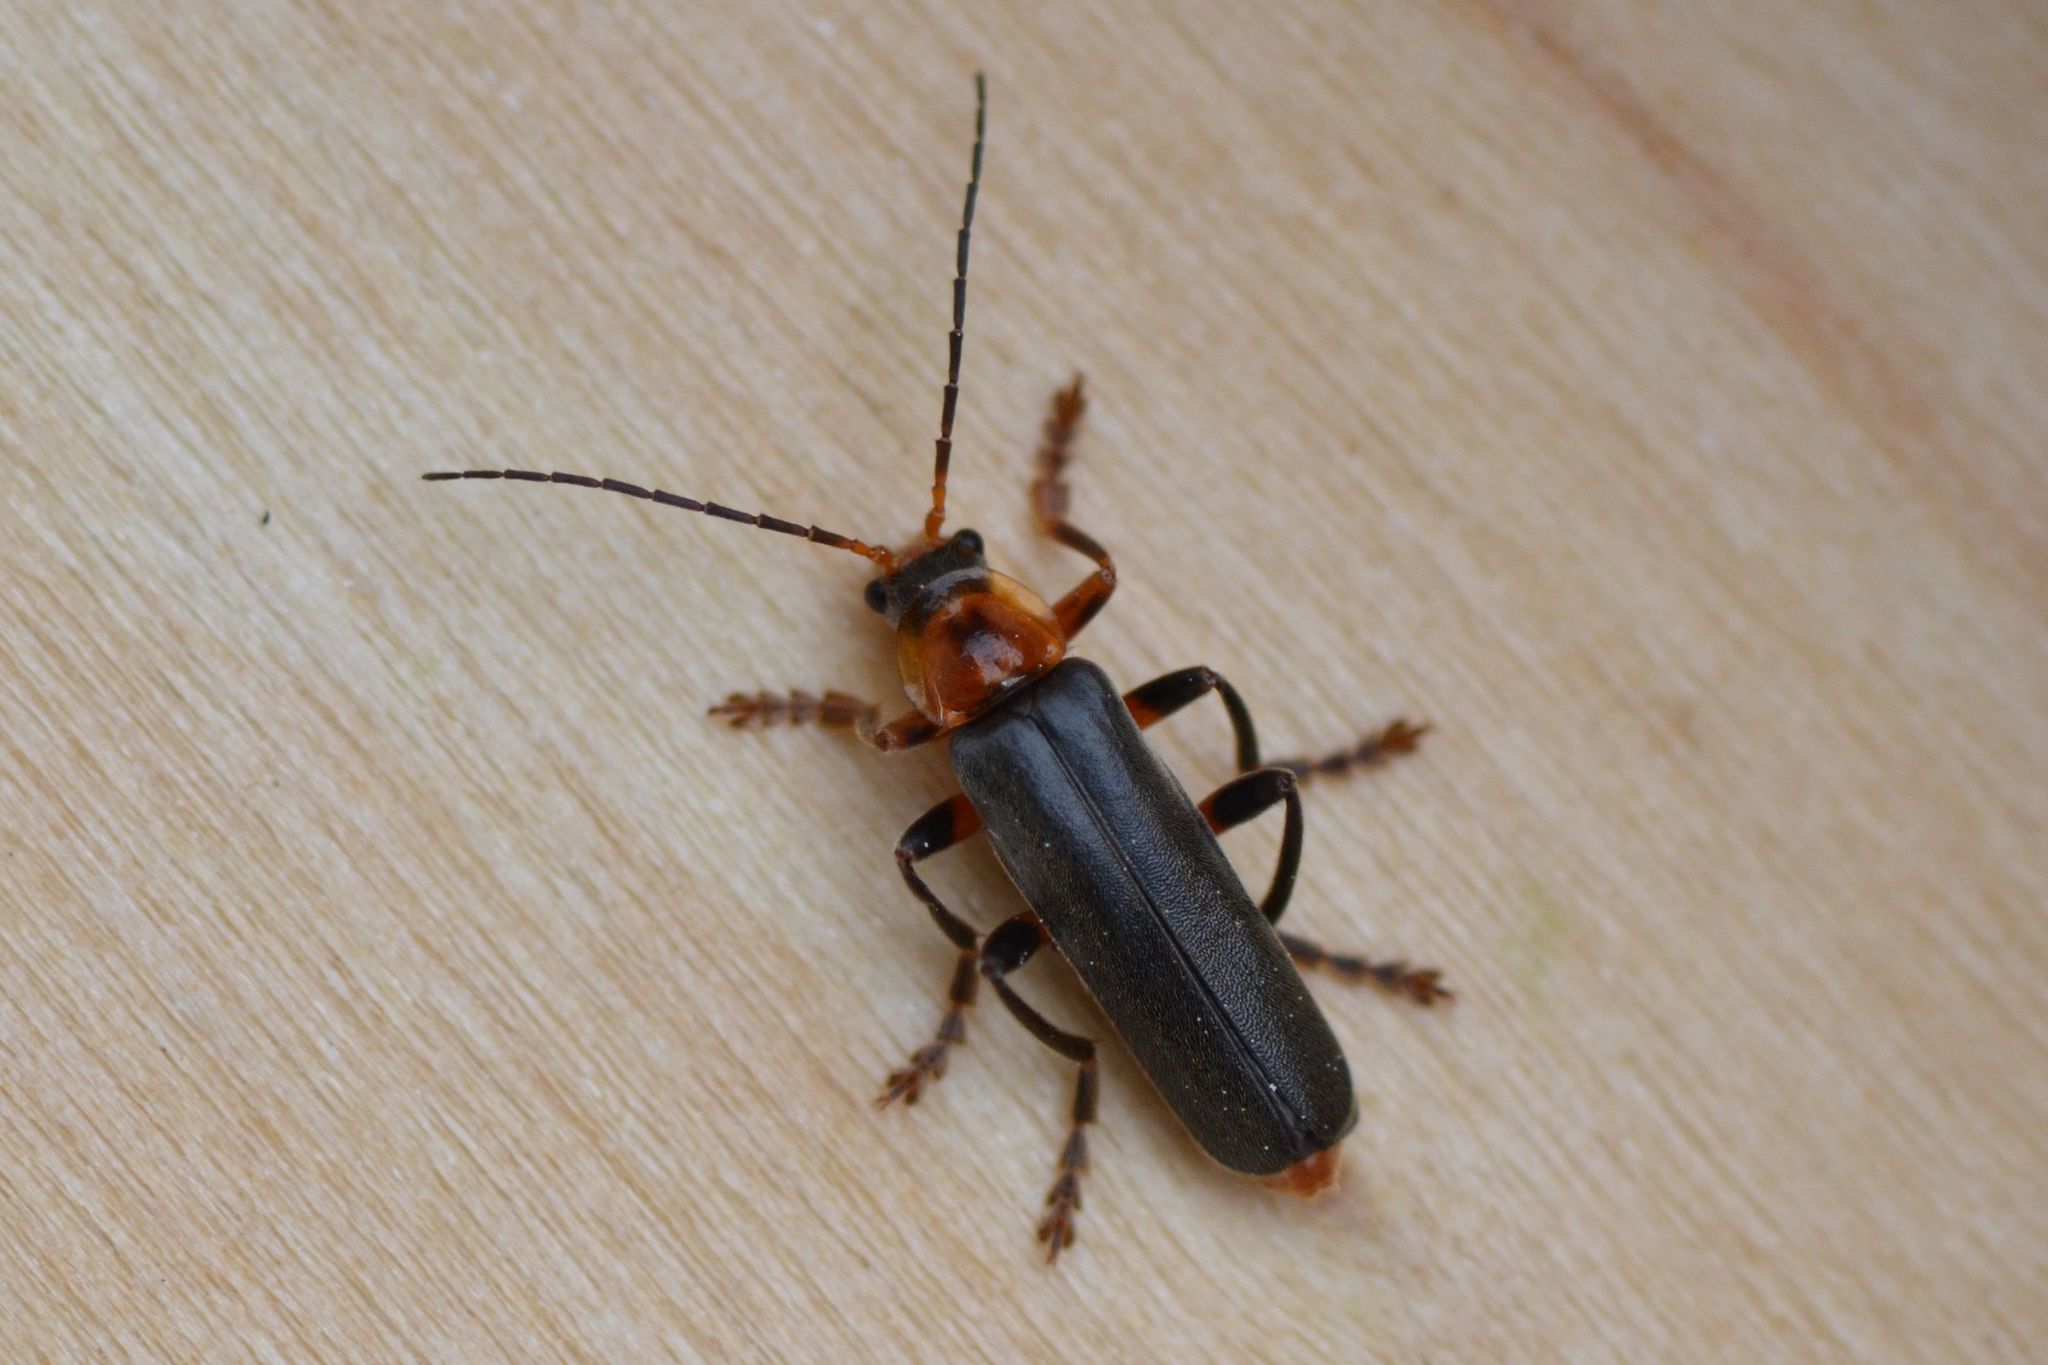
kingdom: Animalia
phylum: Arthropoda
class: Insecta
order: Coleoptera
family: Cantharidae
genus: Cantharis
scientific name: Cantharis livida
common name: Livid soldier beetle
